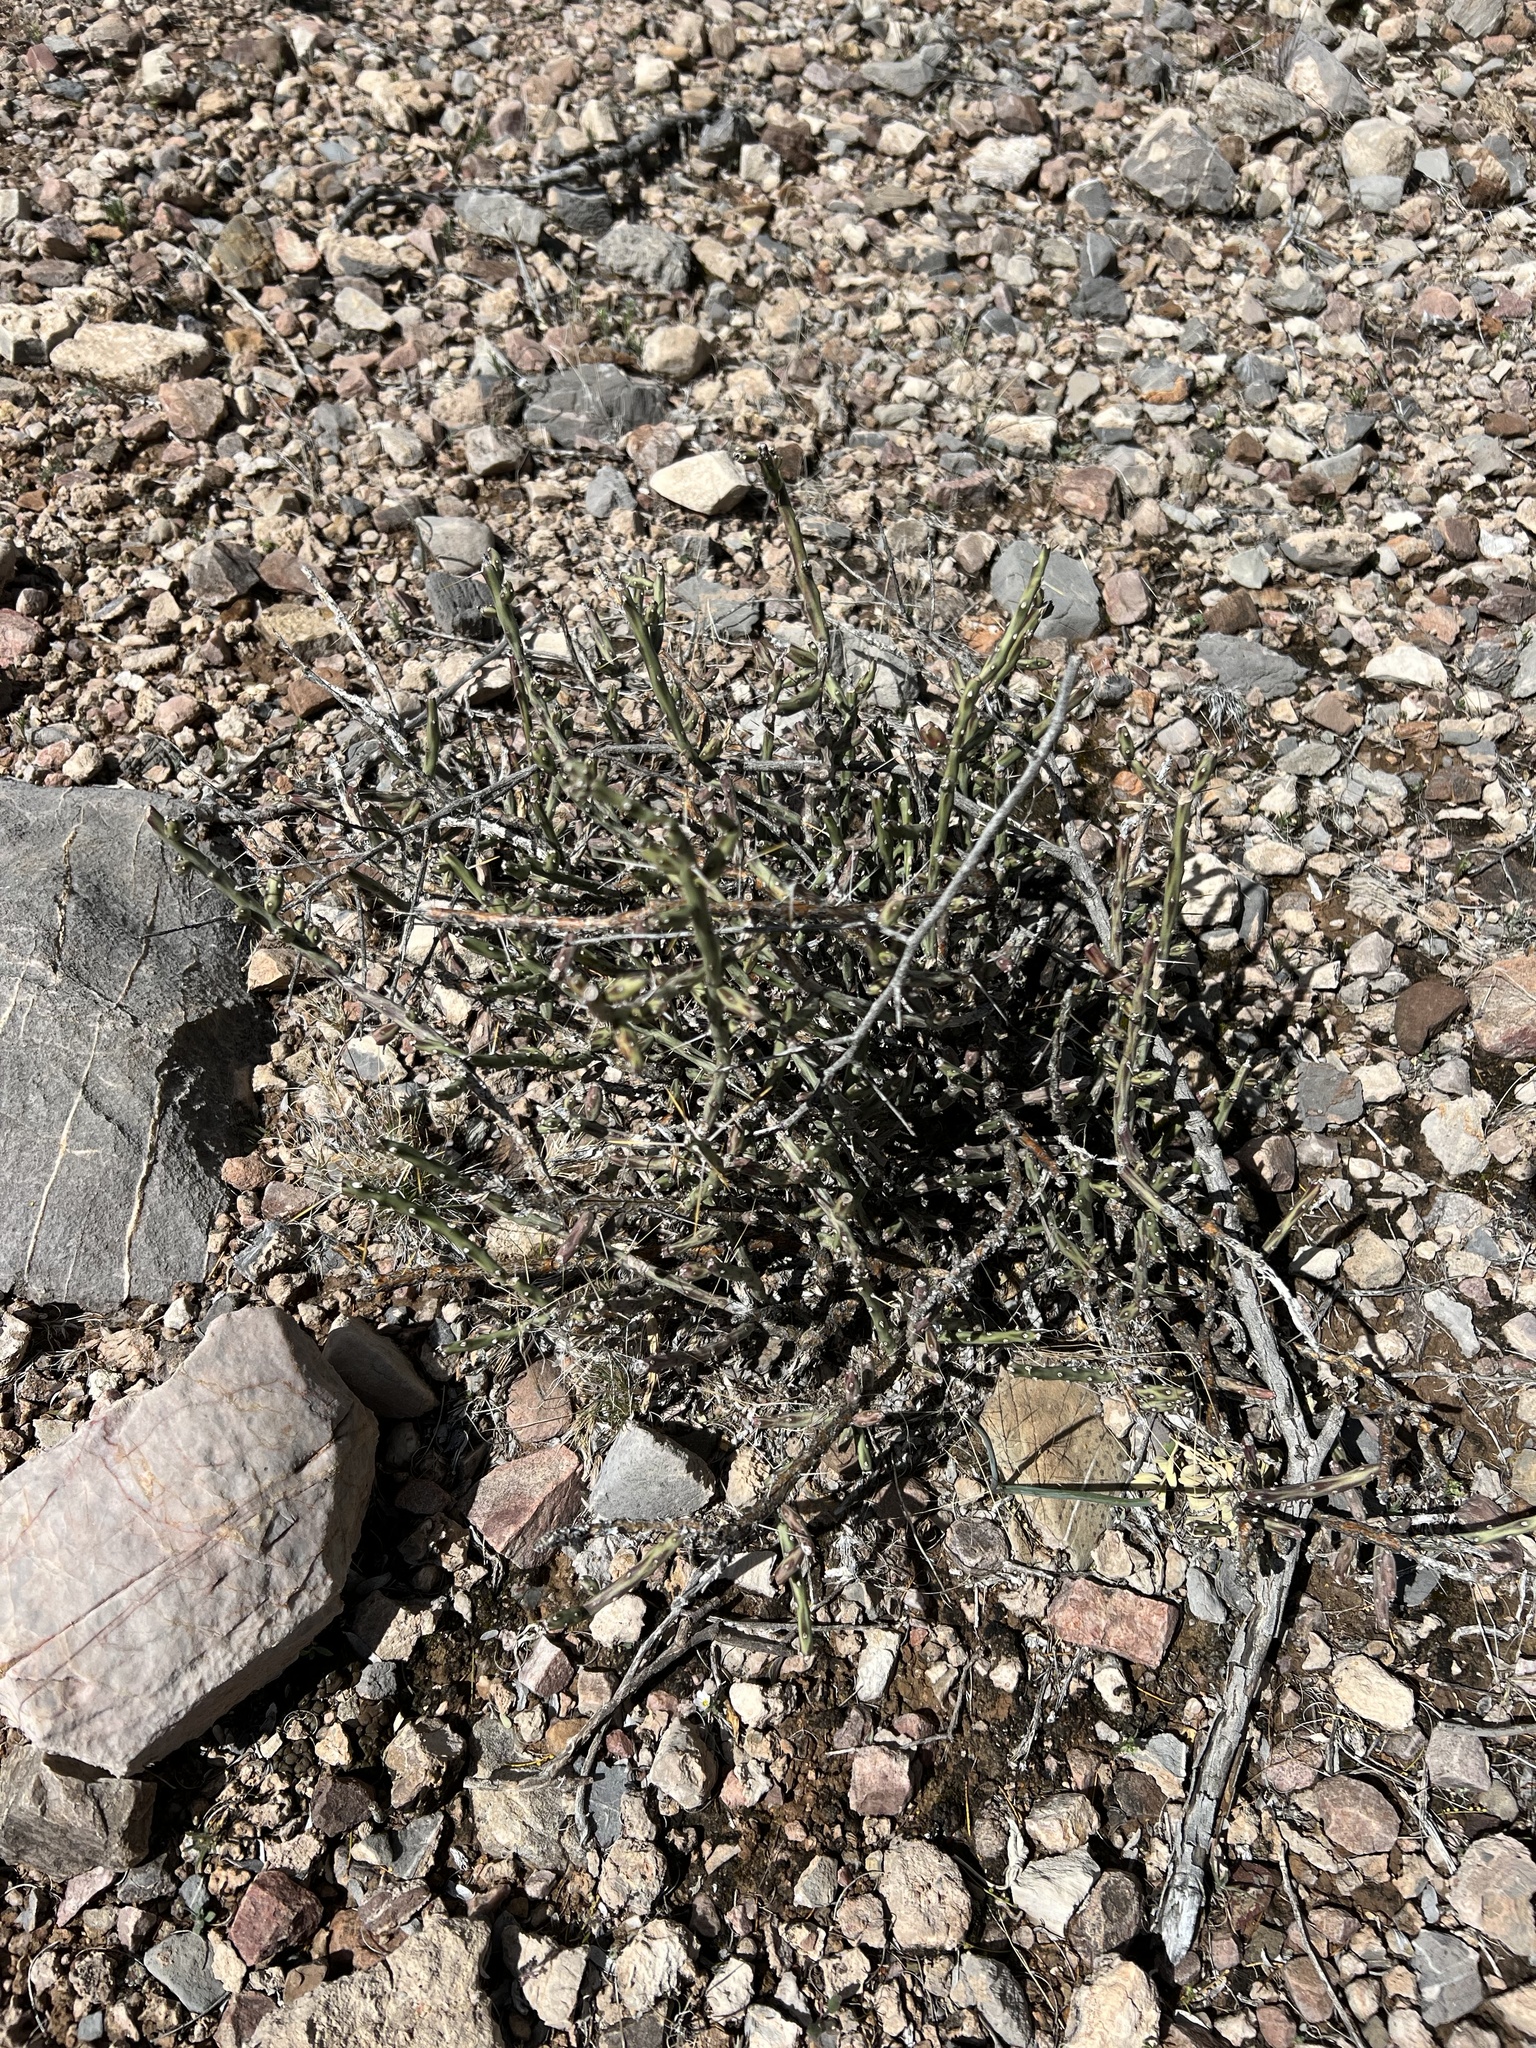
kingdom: Plantae
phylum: Tracheophyta
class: Magnoliopsida
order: Caryophyllales
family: Cactaceae
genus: Cylindropuntia
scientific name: Cylindropuntia leptocaulis
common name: Christmas cactus
